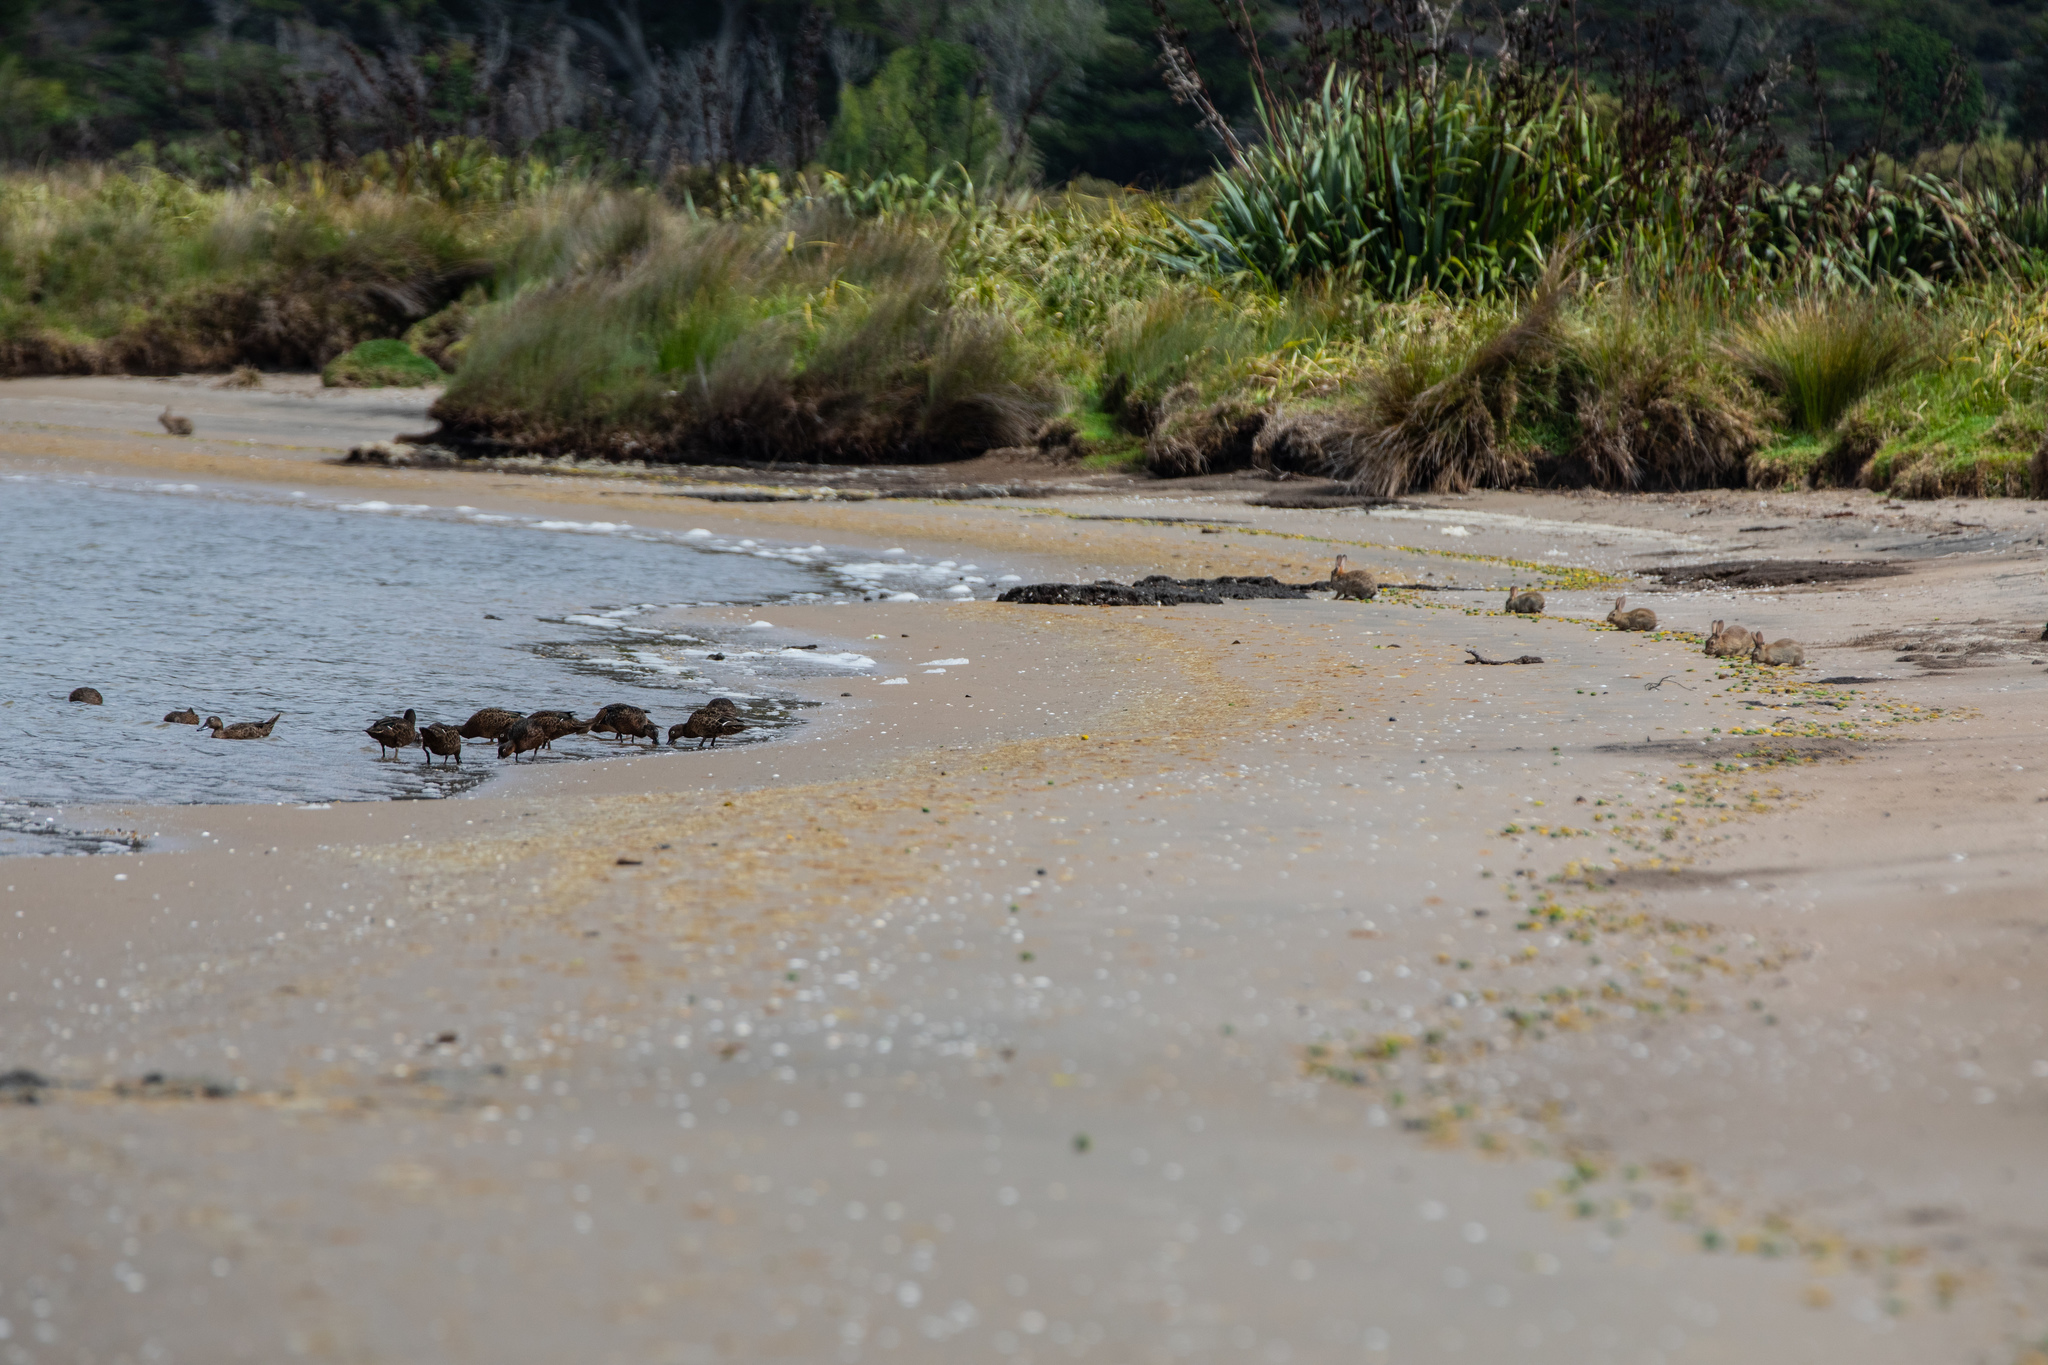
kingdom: Animalia
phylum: Chordata
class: Mammalia
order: Lagomorpha
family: Leporidae
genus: Oryctolagus
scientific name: Oryctolagus cuniculus
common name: European rabbit
